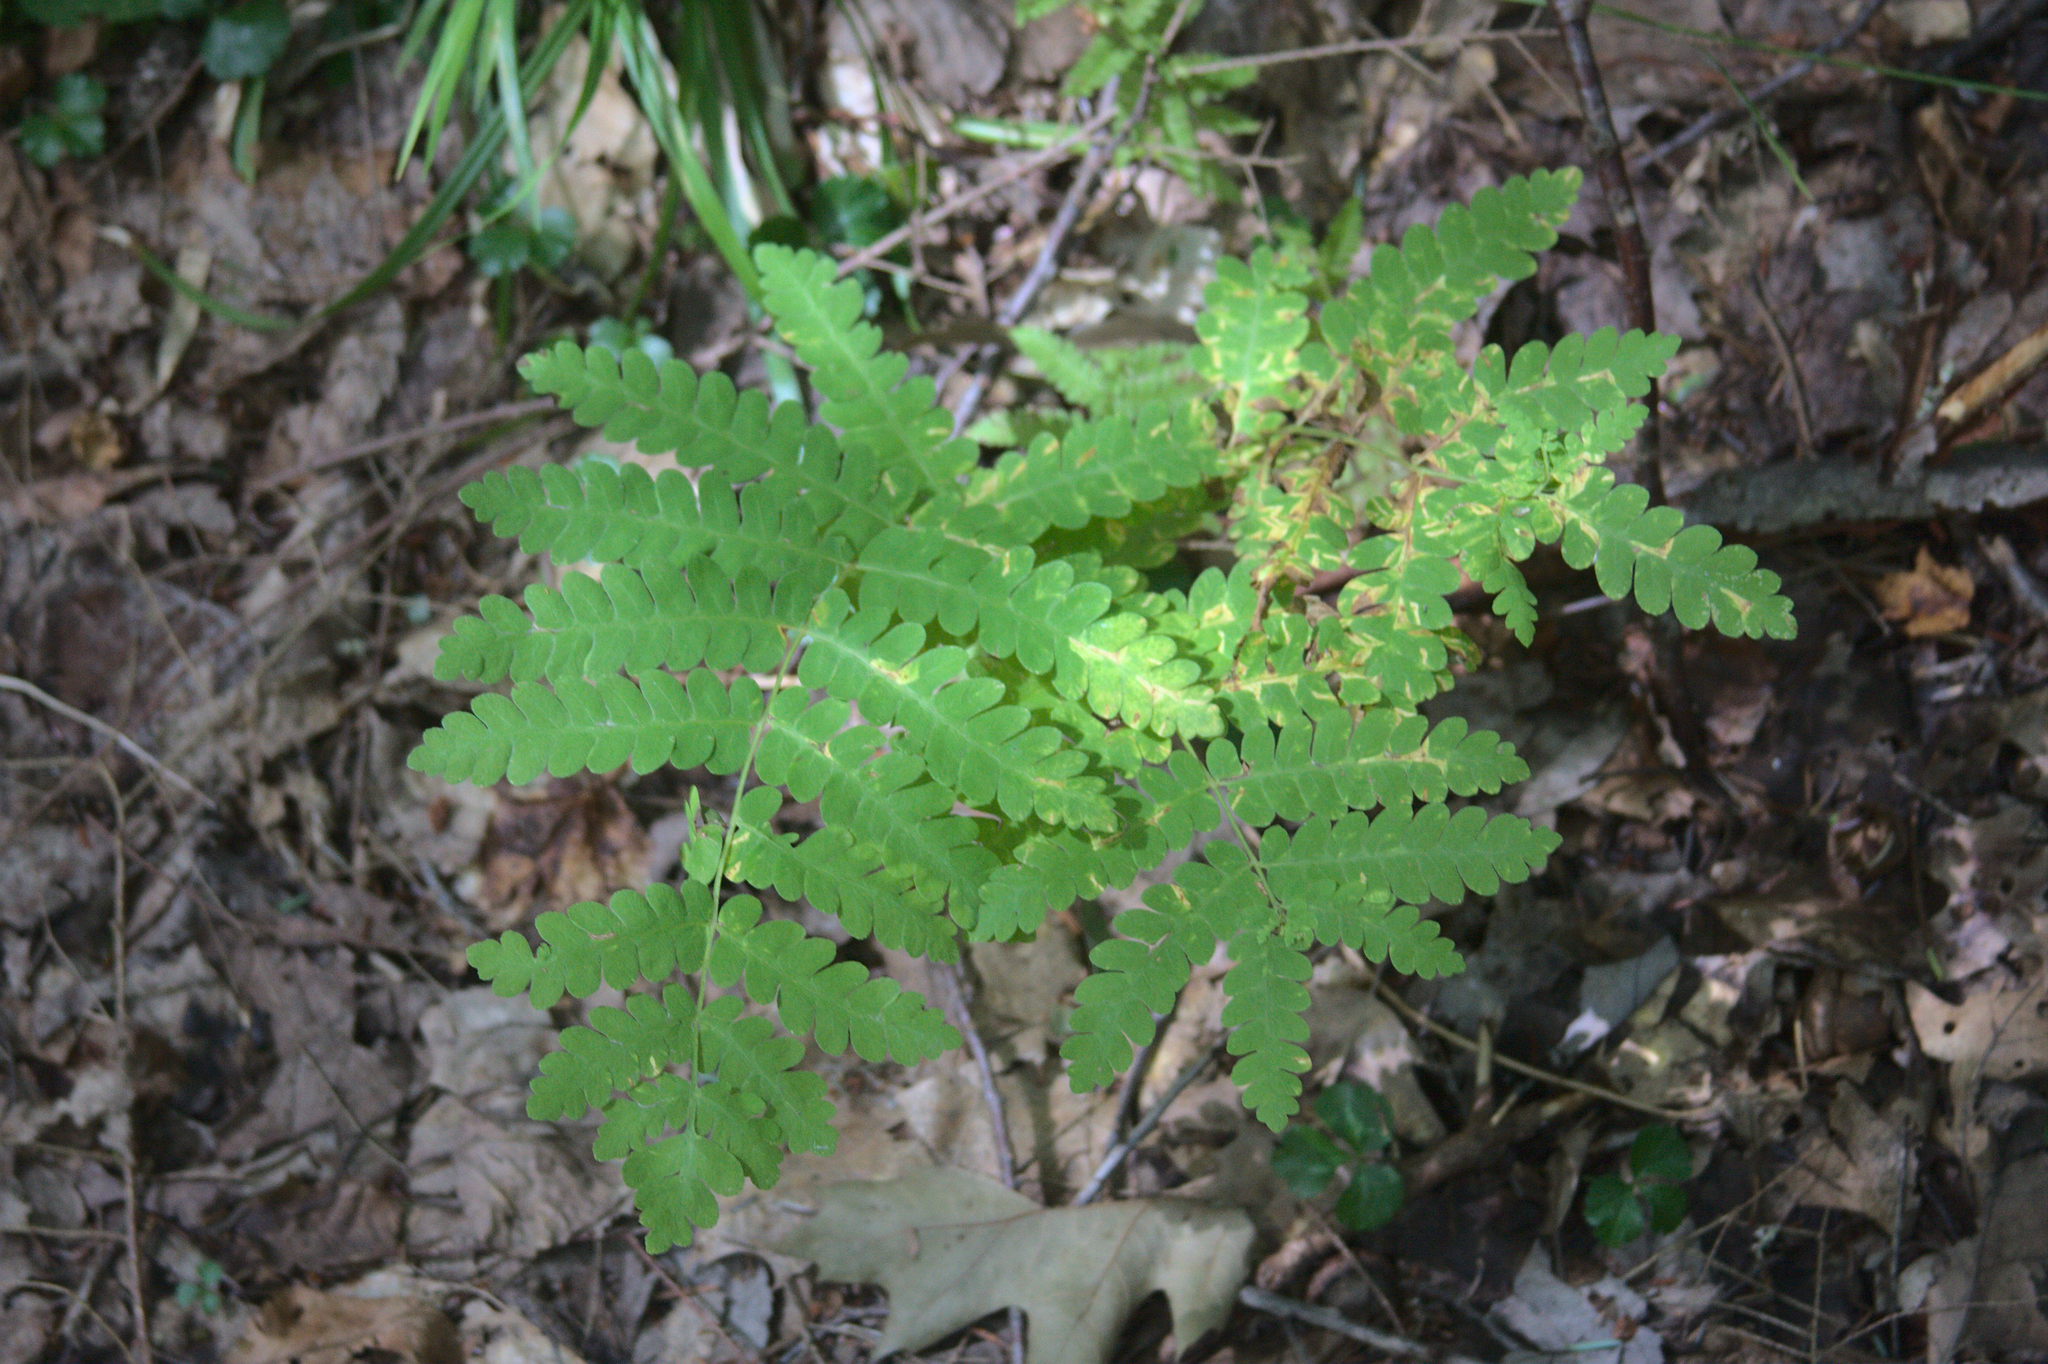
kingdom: Plantae
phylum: Tracheophyta
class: Polypodiopsida
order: Osmundales
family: Osmundaceae
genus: Claytosmunda
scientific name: Claytosmunda claytoniana
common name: Clayton's fern
